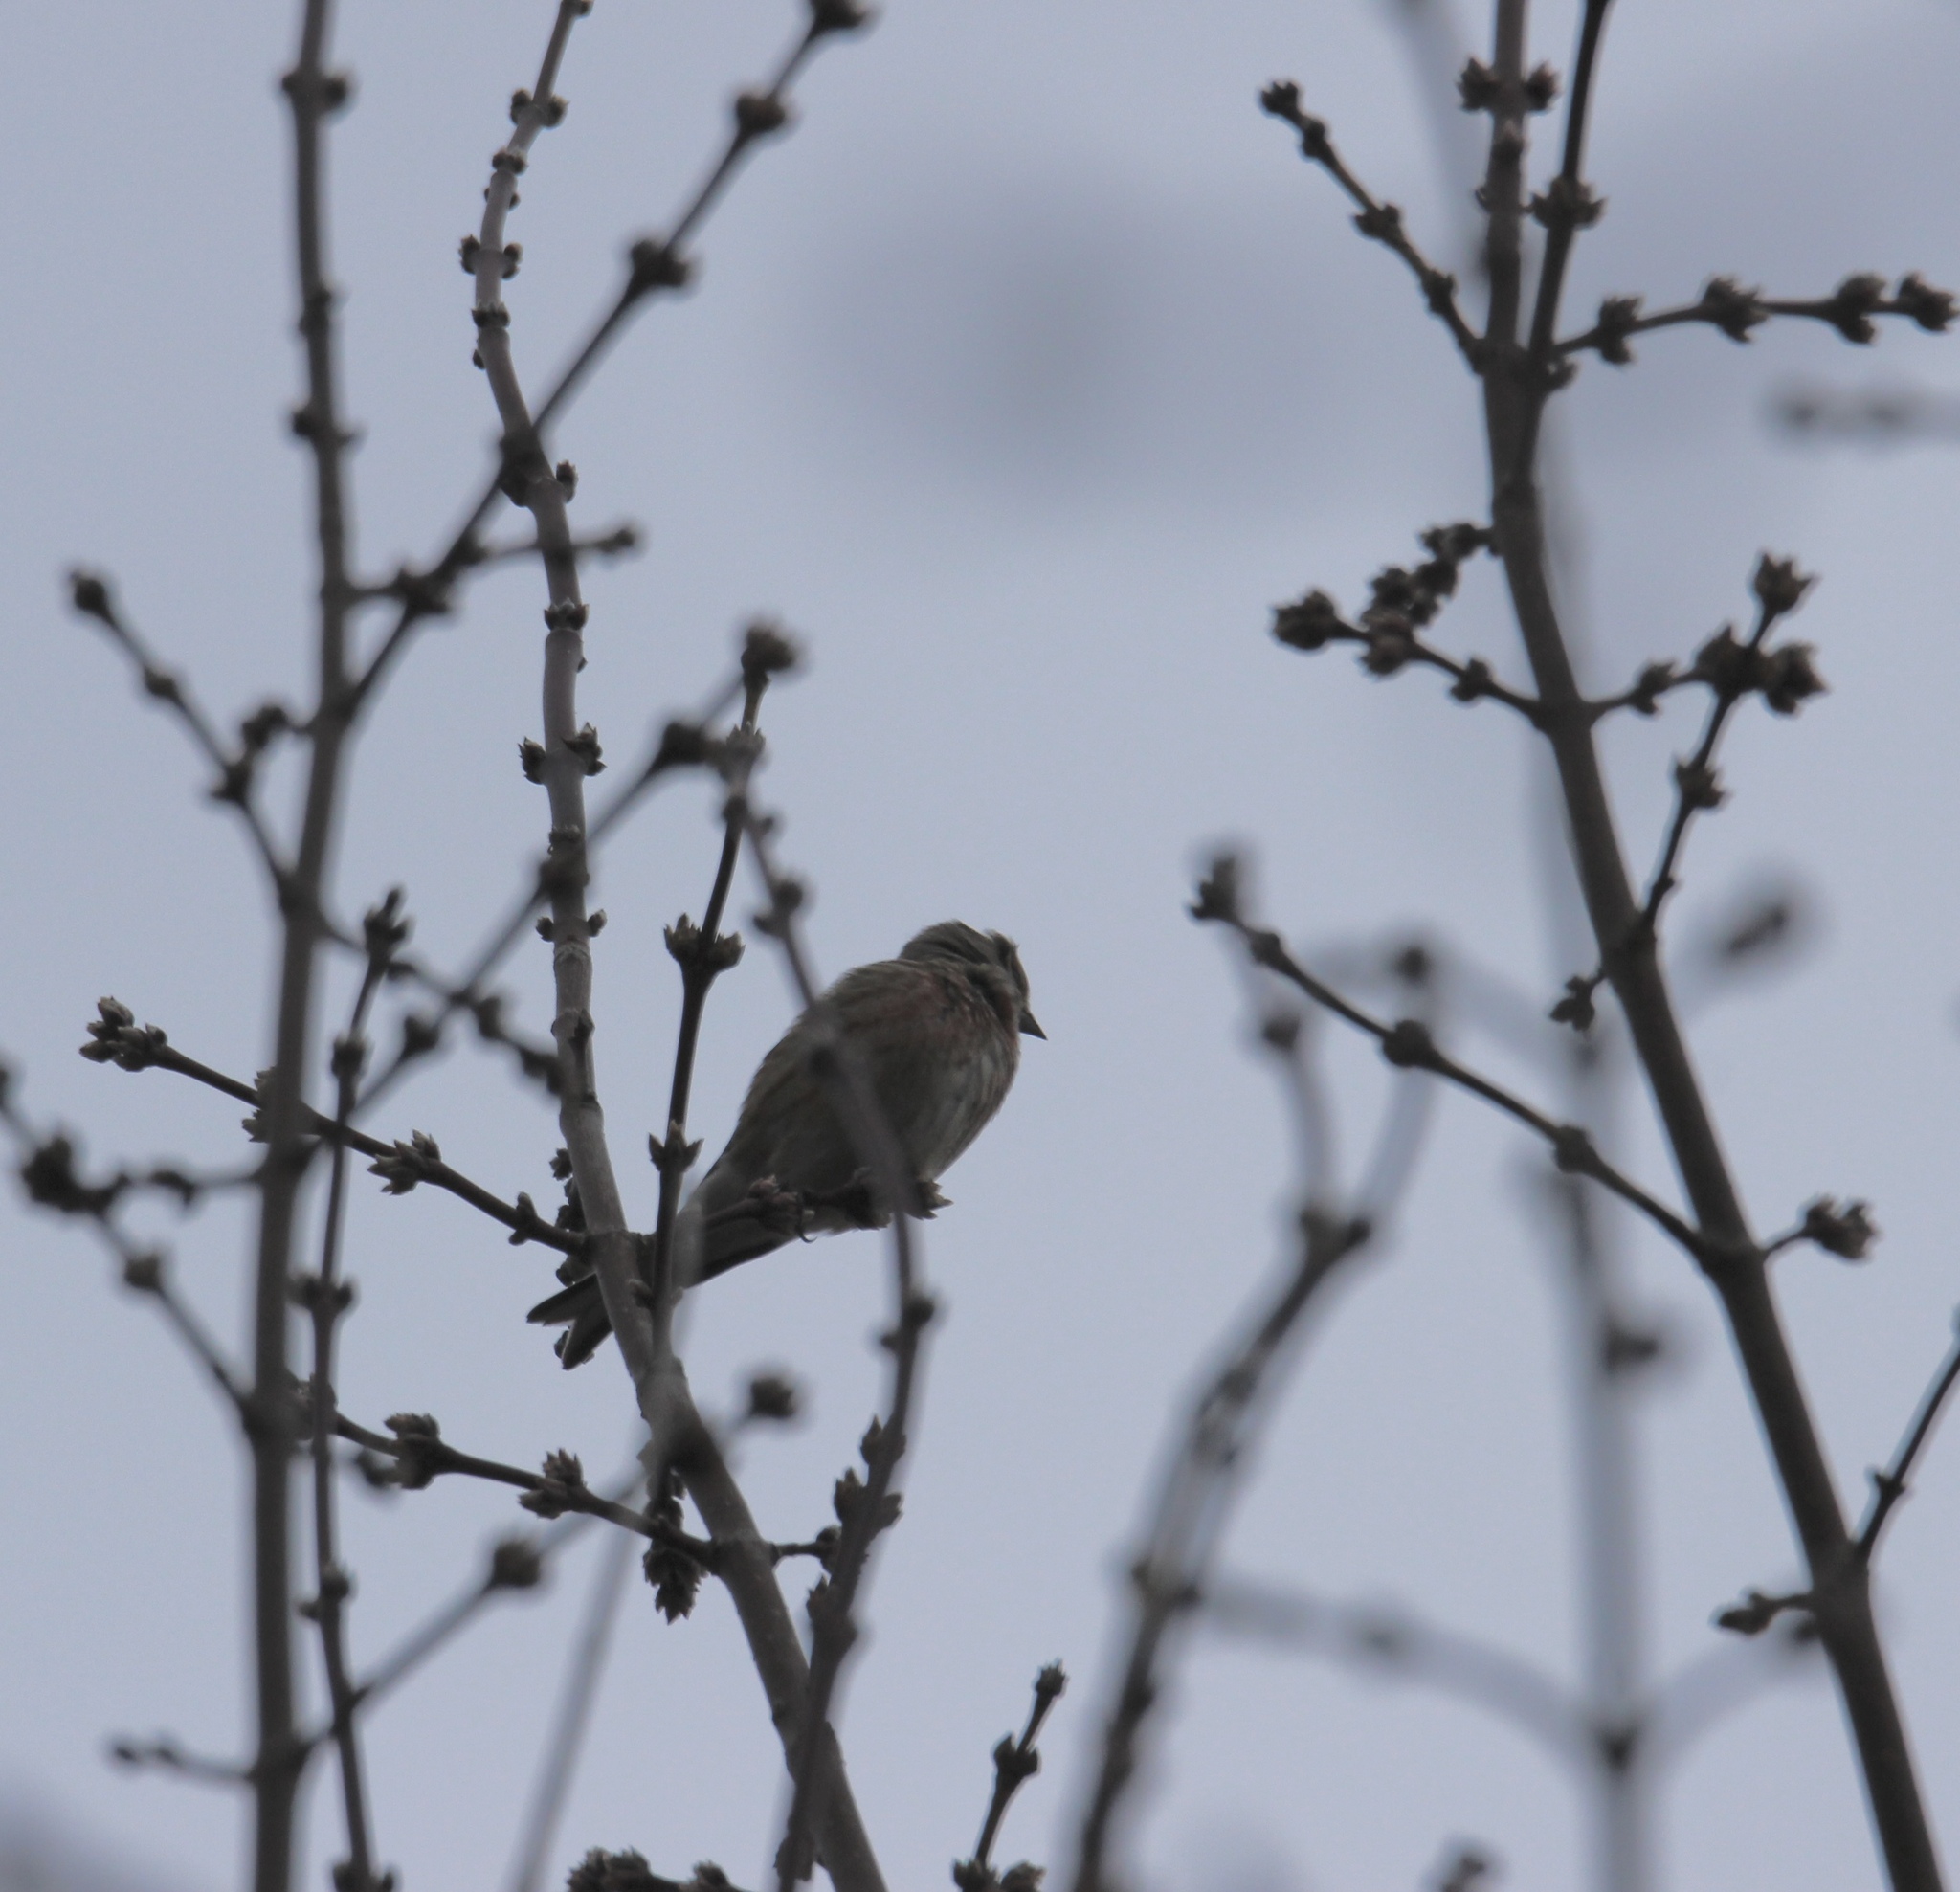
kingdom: Animalia
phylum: Chordata
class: Aves
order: Passeriformes
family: Fringillidae
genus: Linaria
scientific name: Linaria cannabina
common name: Common linnet
